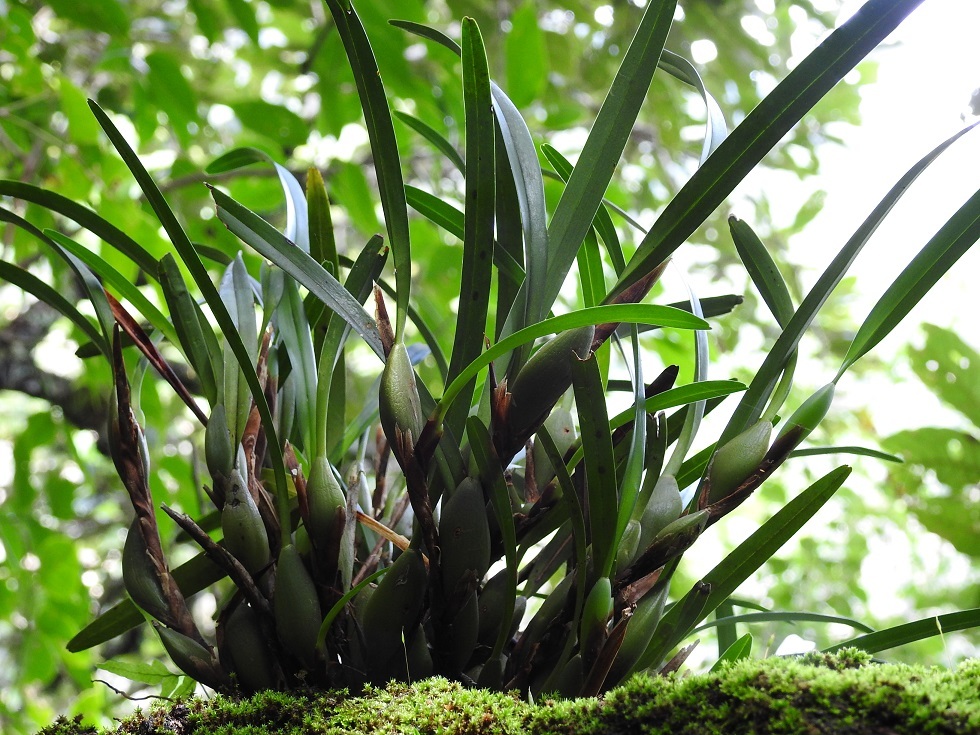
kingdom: Plantae
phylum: Tracheophyta
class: Liliopsida
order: Asparagales
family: Orchidaceae
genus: Maxillaria
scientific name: Maxillaria variabilis
